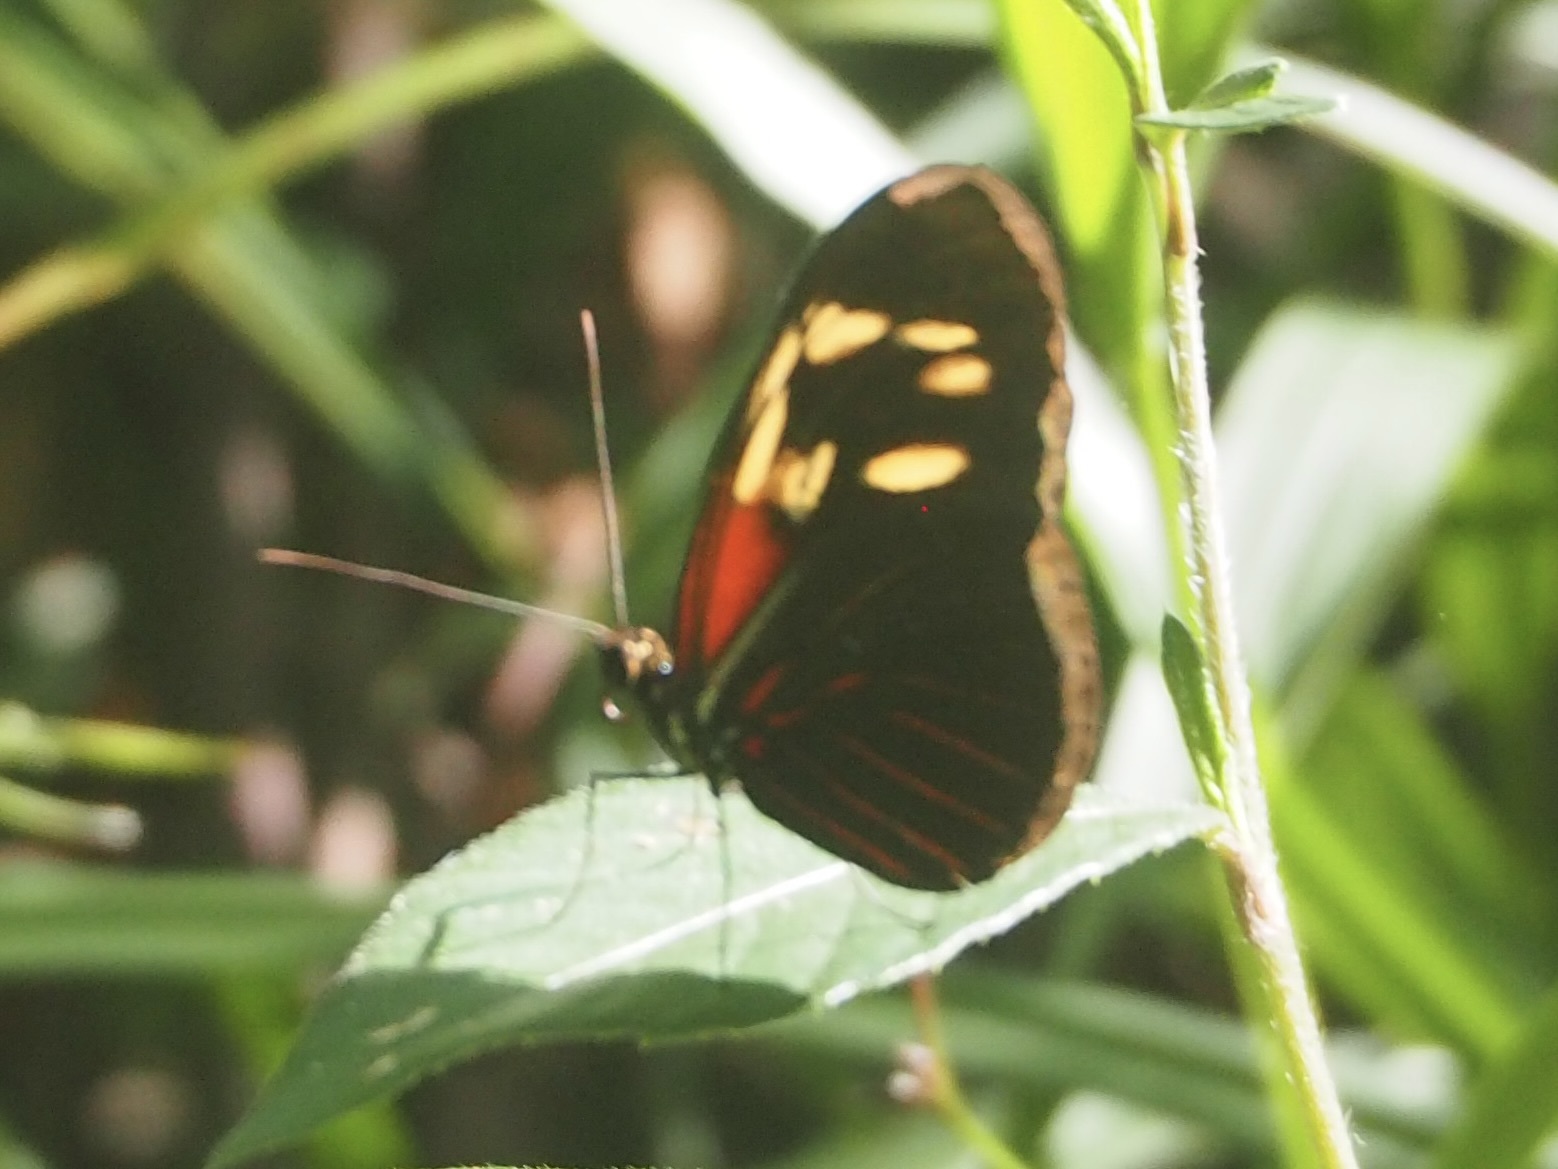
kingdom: Animalia
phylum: Arthropoda
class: Insecta
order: Lepidoptera
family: Nymphalidae
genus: Heliconius
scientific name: Heliconius erato
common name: Common patch longwing
